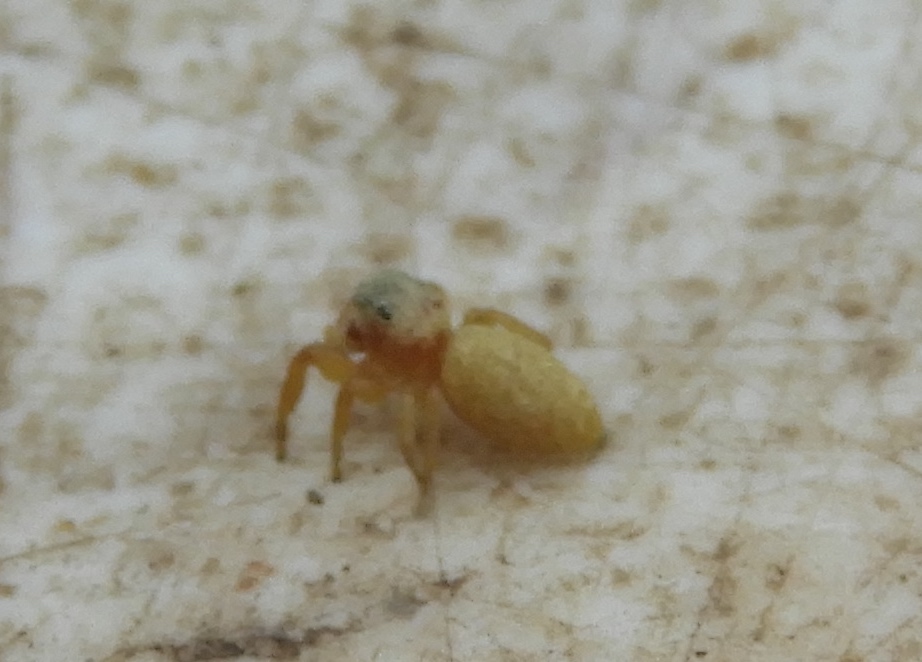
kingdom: Animalia
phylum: Arthropoda
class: Arachnida
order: Araneae
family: Salticidae
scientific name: Salticidae
